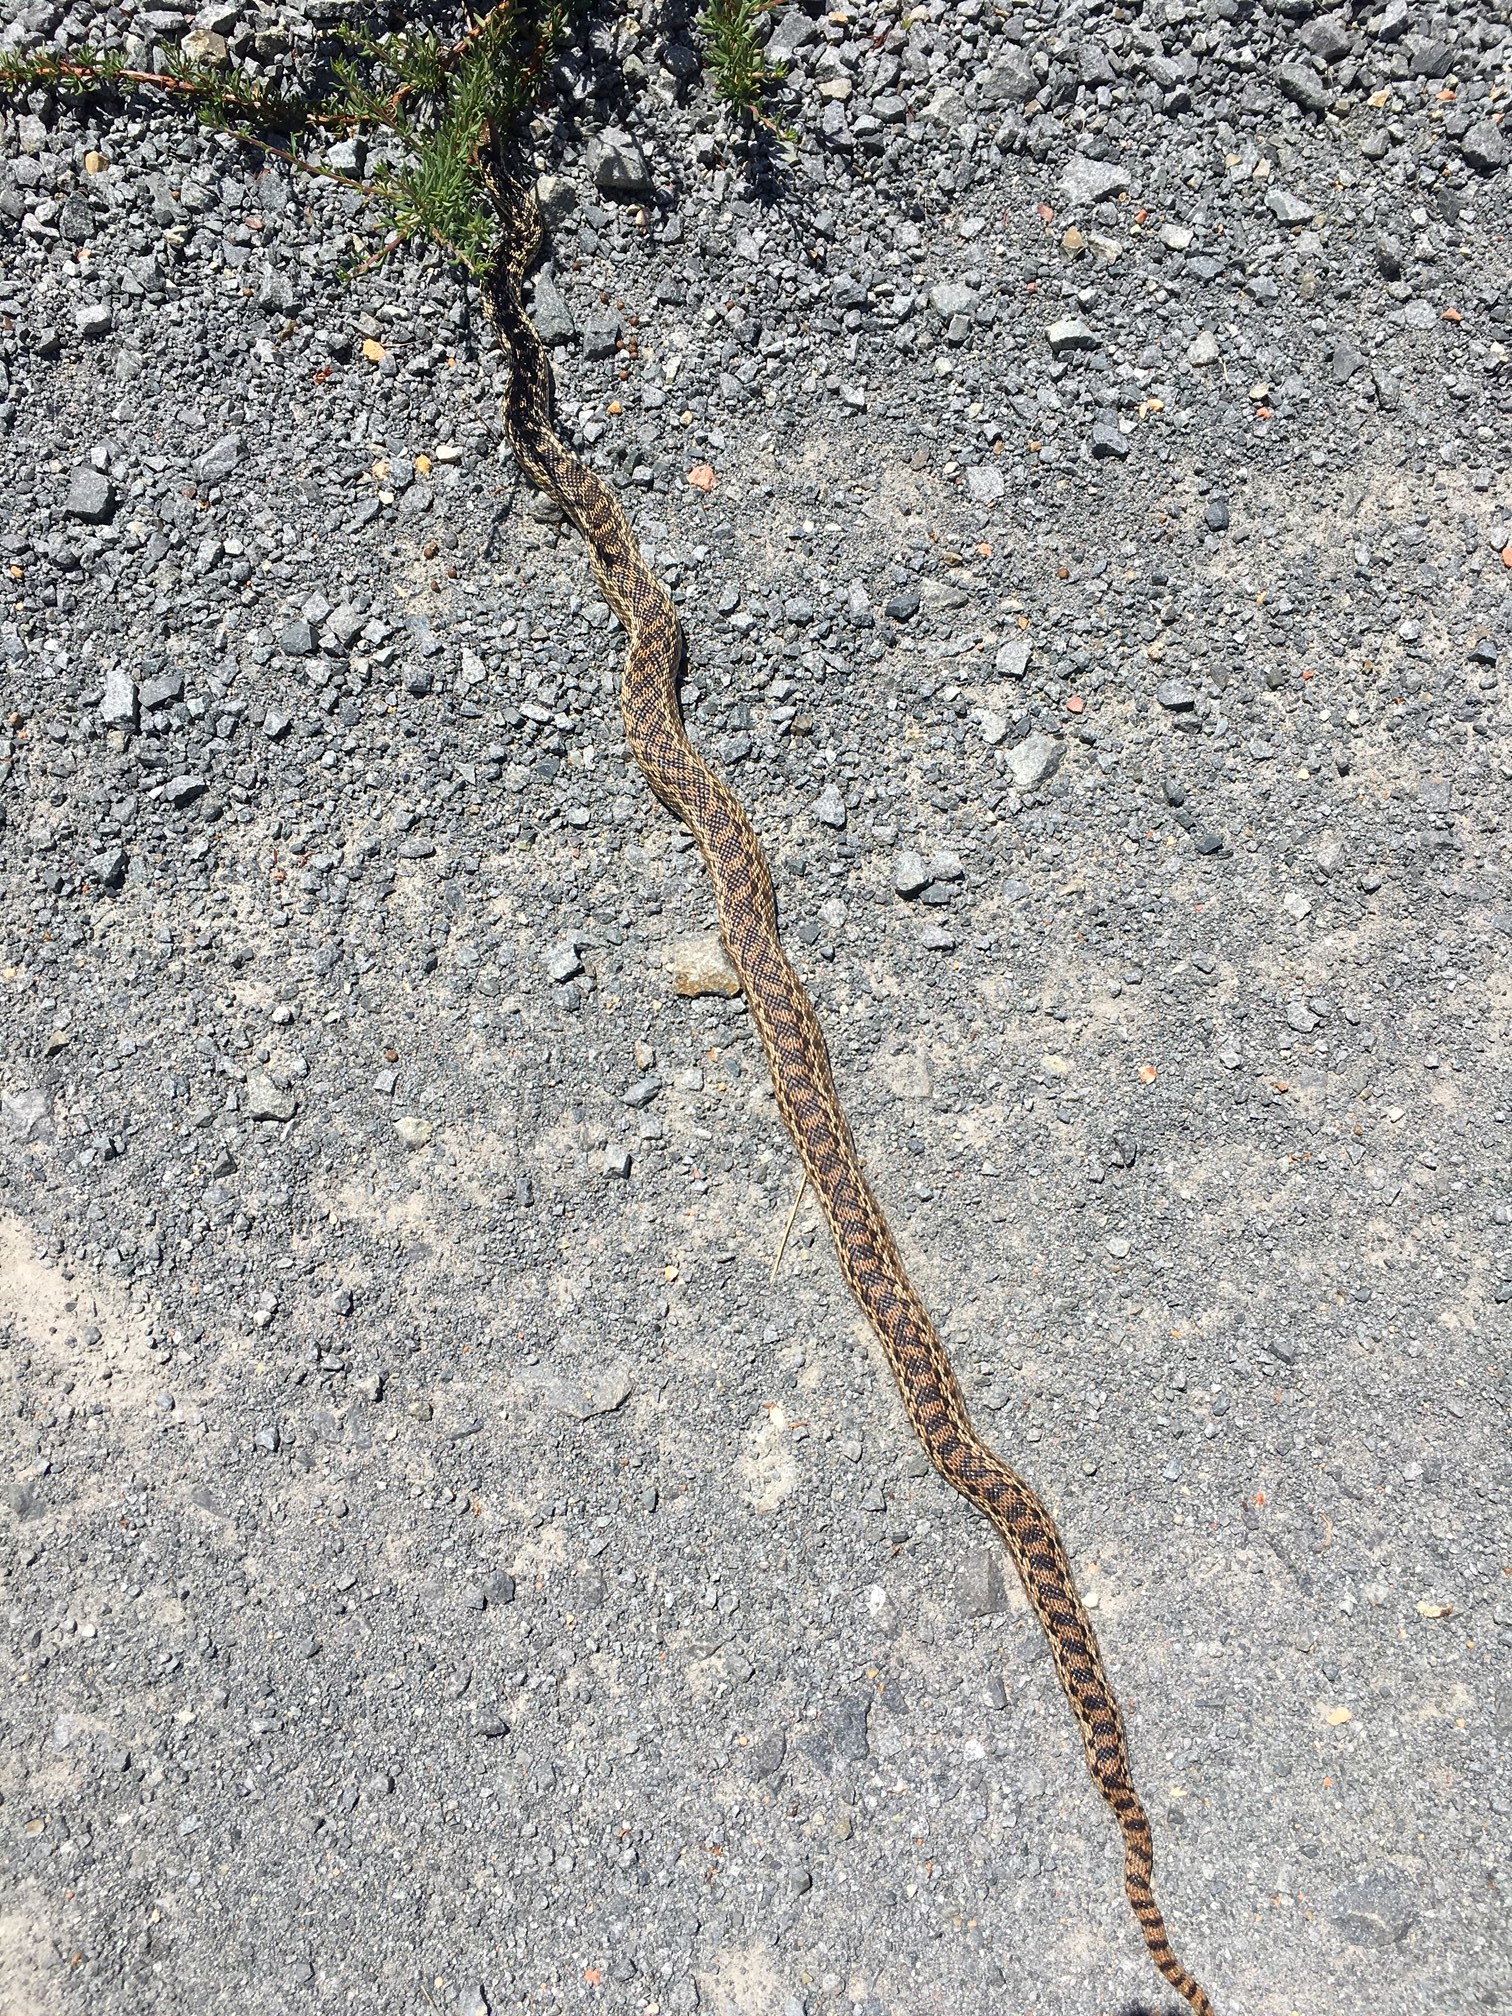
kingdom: Animalia
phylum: Chordata
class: Squamata
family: Colubridae
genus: Pituophis
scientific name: Pituophis catenifer
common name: Gopher snake
